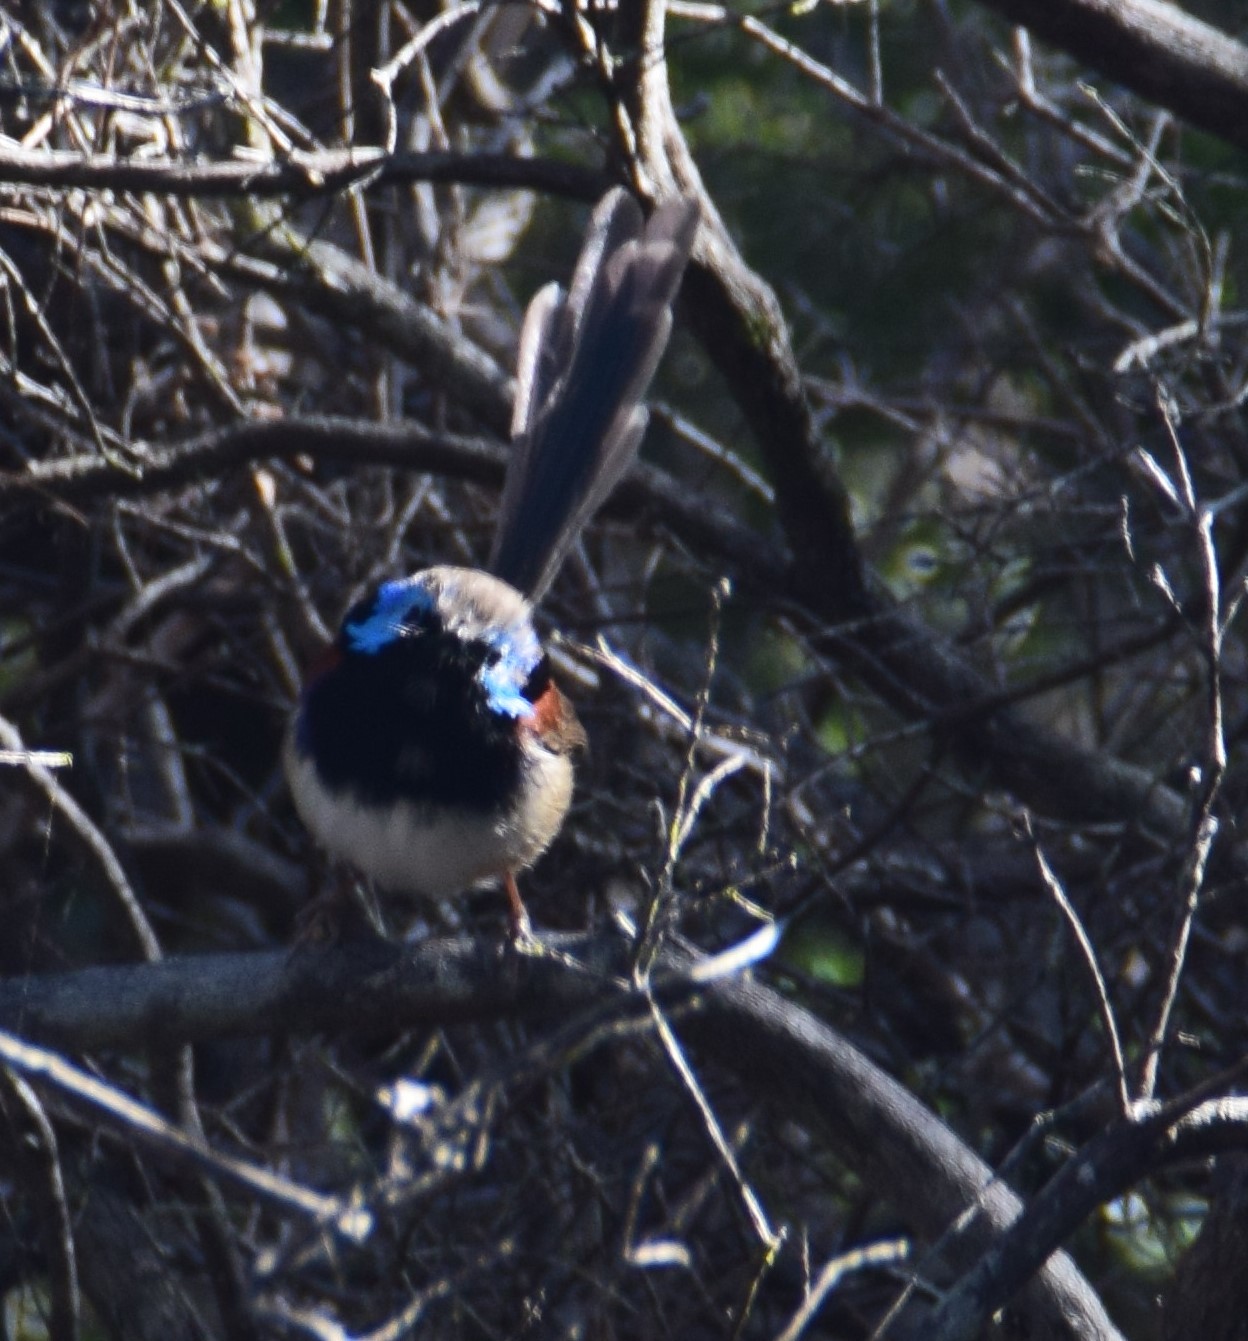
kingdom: Animalia
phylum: Chordata
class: Aves
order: Passeriformes
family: Maluridae
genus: Malurus
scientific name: Malurus lamberti
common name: Variegated fairywren
